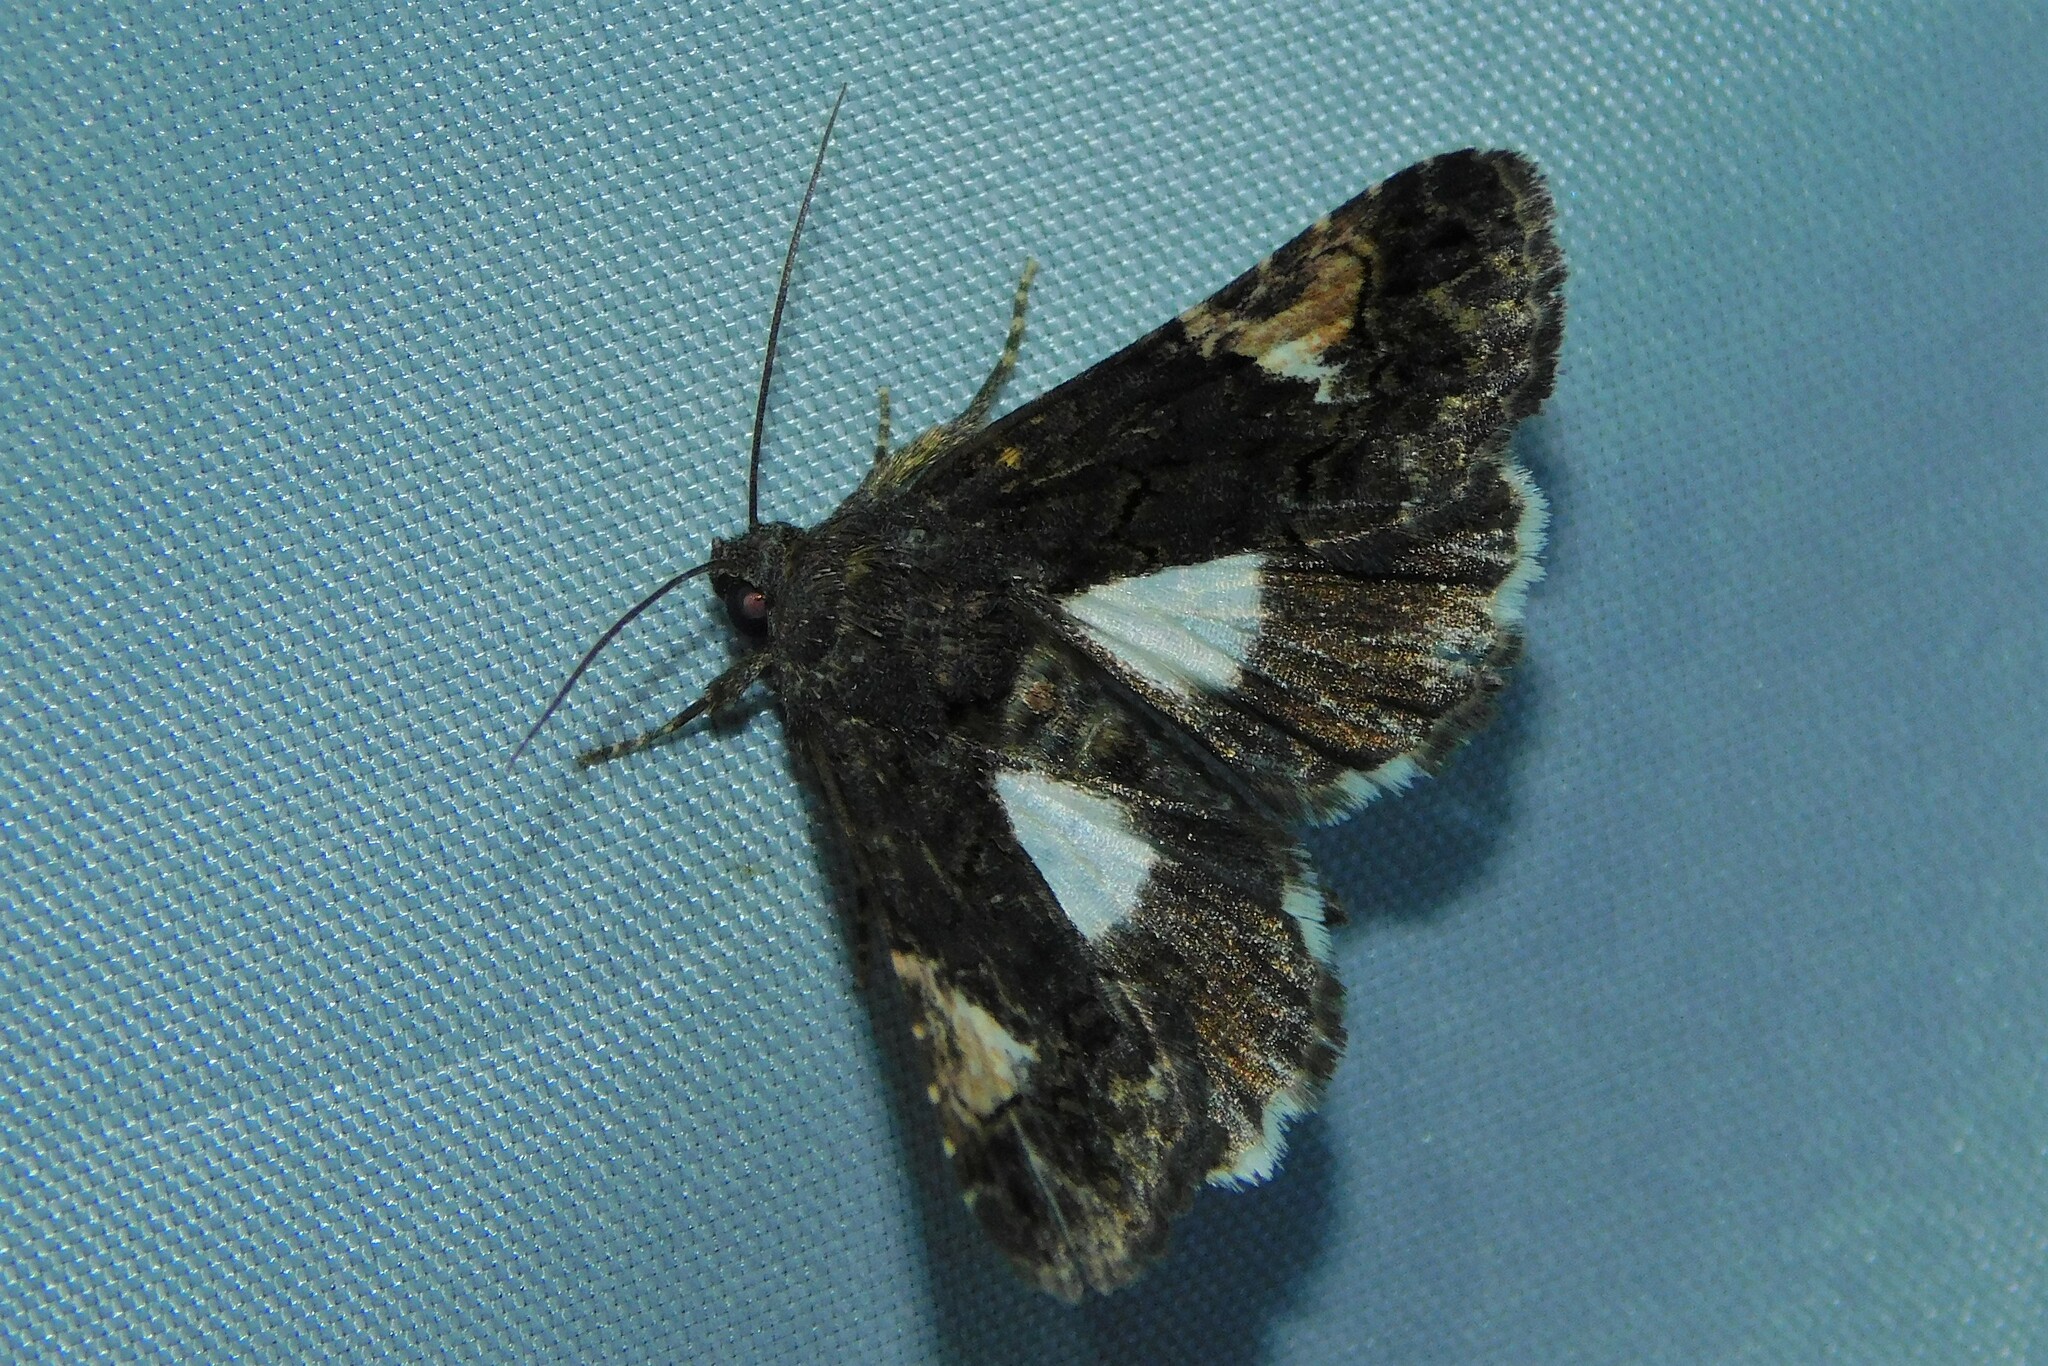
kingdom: Animalia
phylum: Arthropoda
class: Insecta
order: Lepidoptera
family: Noctuidae
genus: Aedia
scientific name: Aedia funesta
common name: The druid
